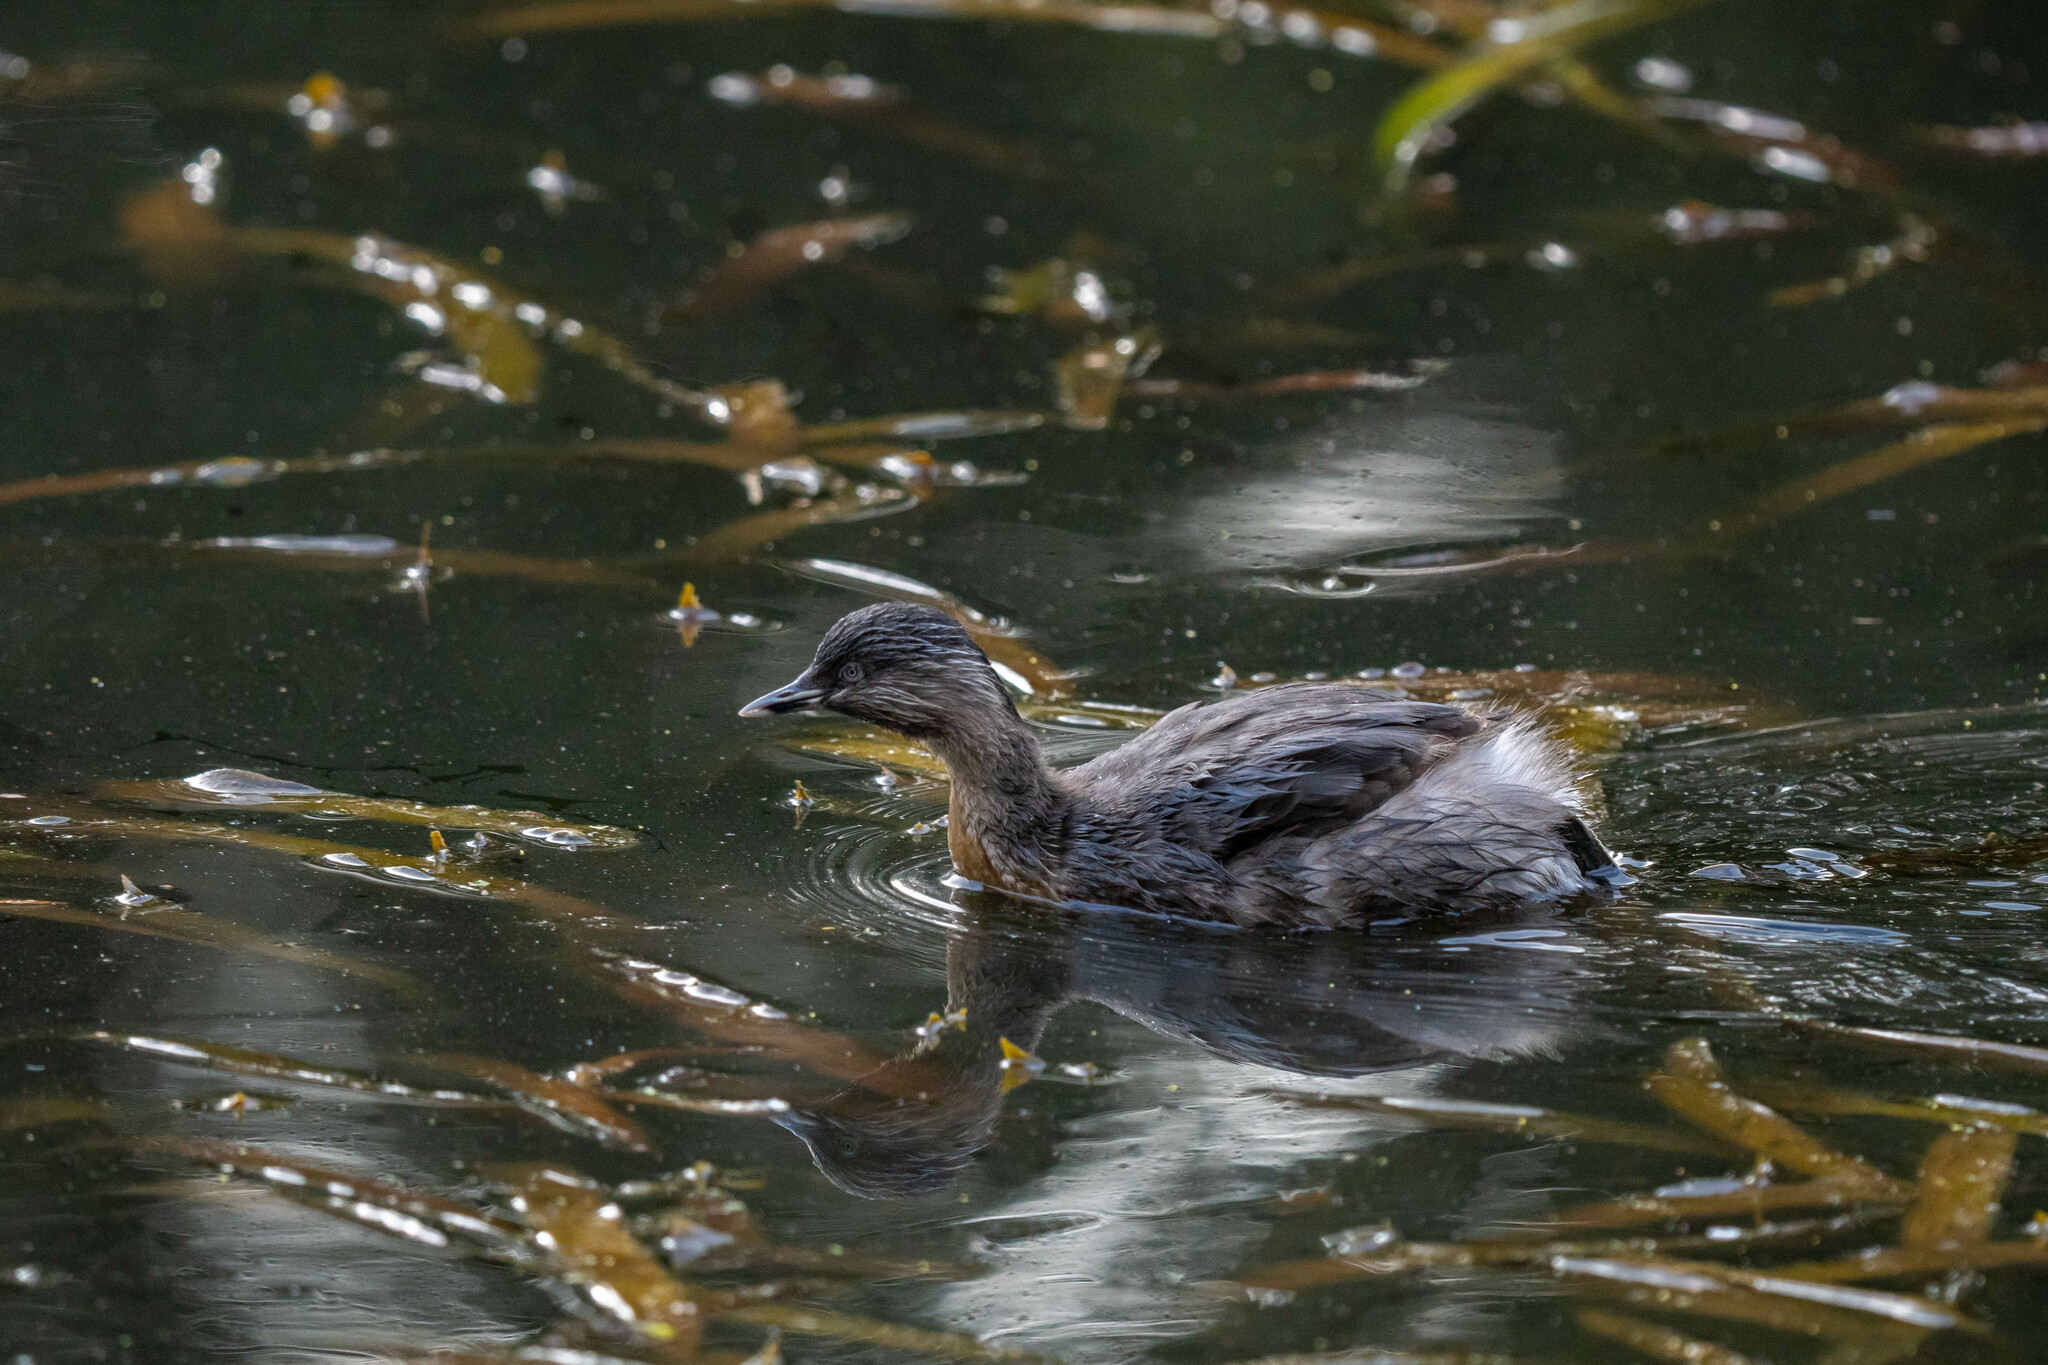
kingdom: Animalia
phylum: Chordata
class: Aves
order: Podicipediformes
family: Podicipedidae
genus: Poliocephalus
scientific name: Poliocephalus poliocephalus
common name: Hoary-headed grebe
